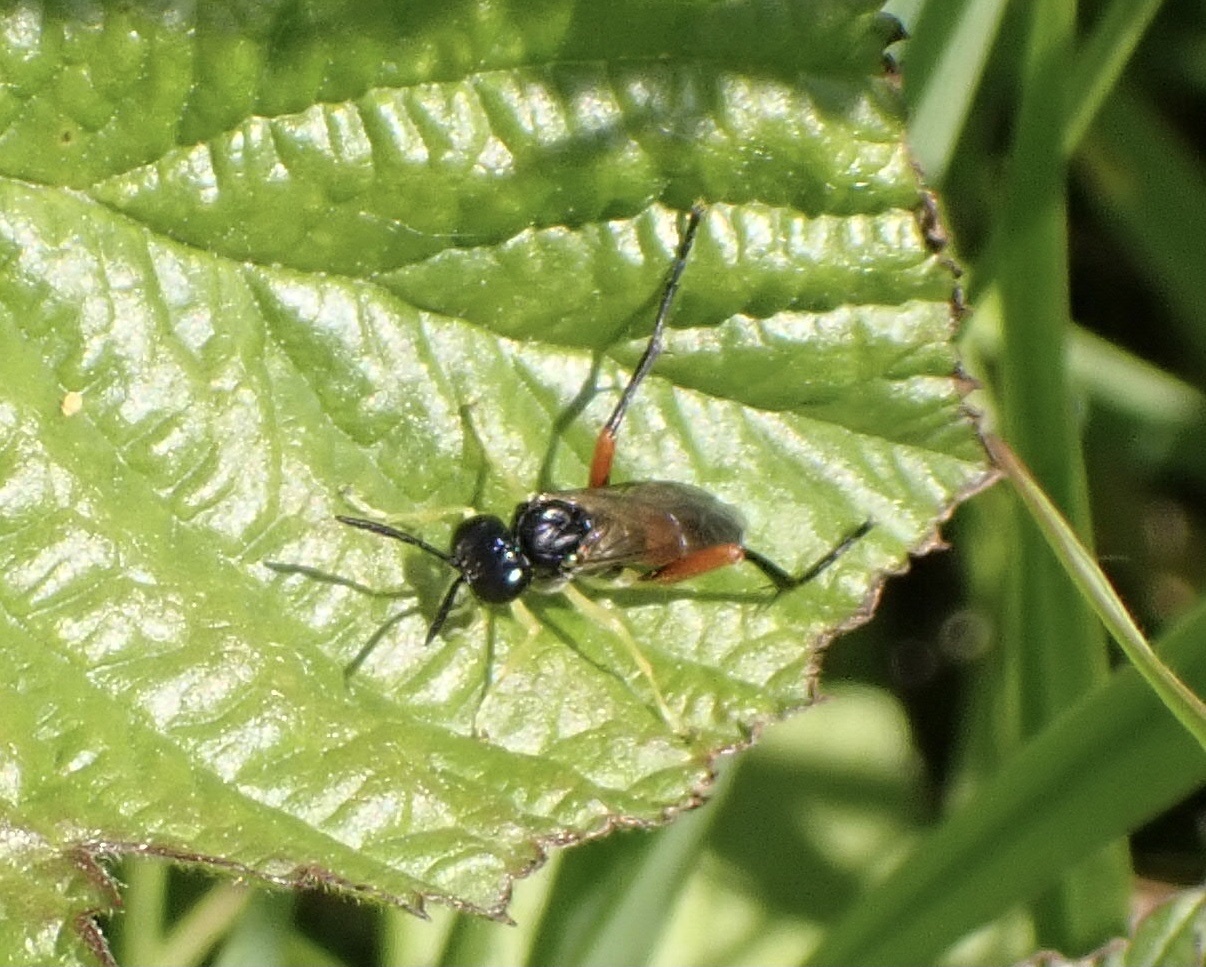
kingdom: Animalia
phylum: Arthropoda
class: Insecta
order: Hymenoptera
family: Tenthredinidae
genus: Macrophya
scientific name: Macrophya rufipes
